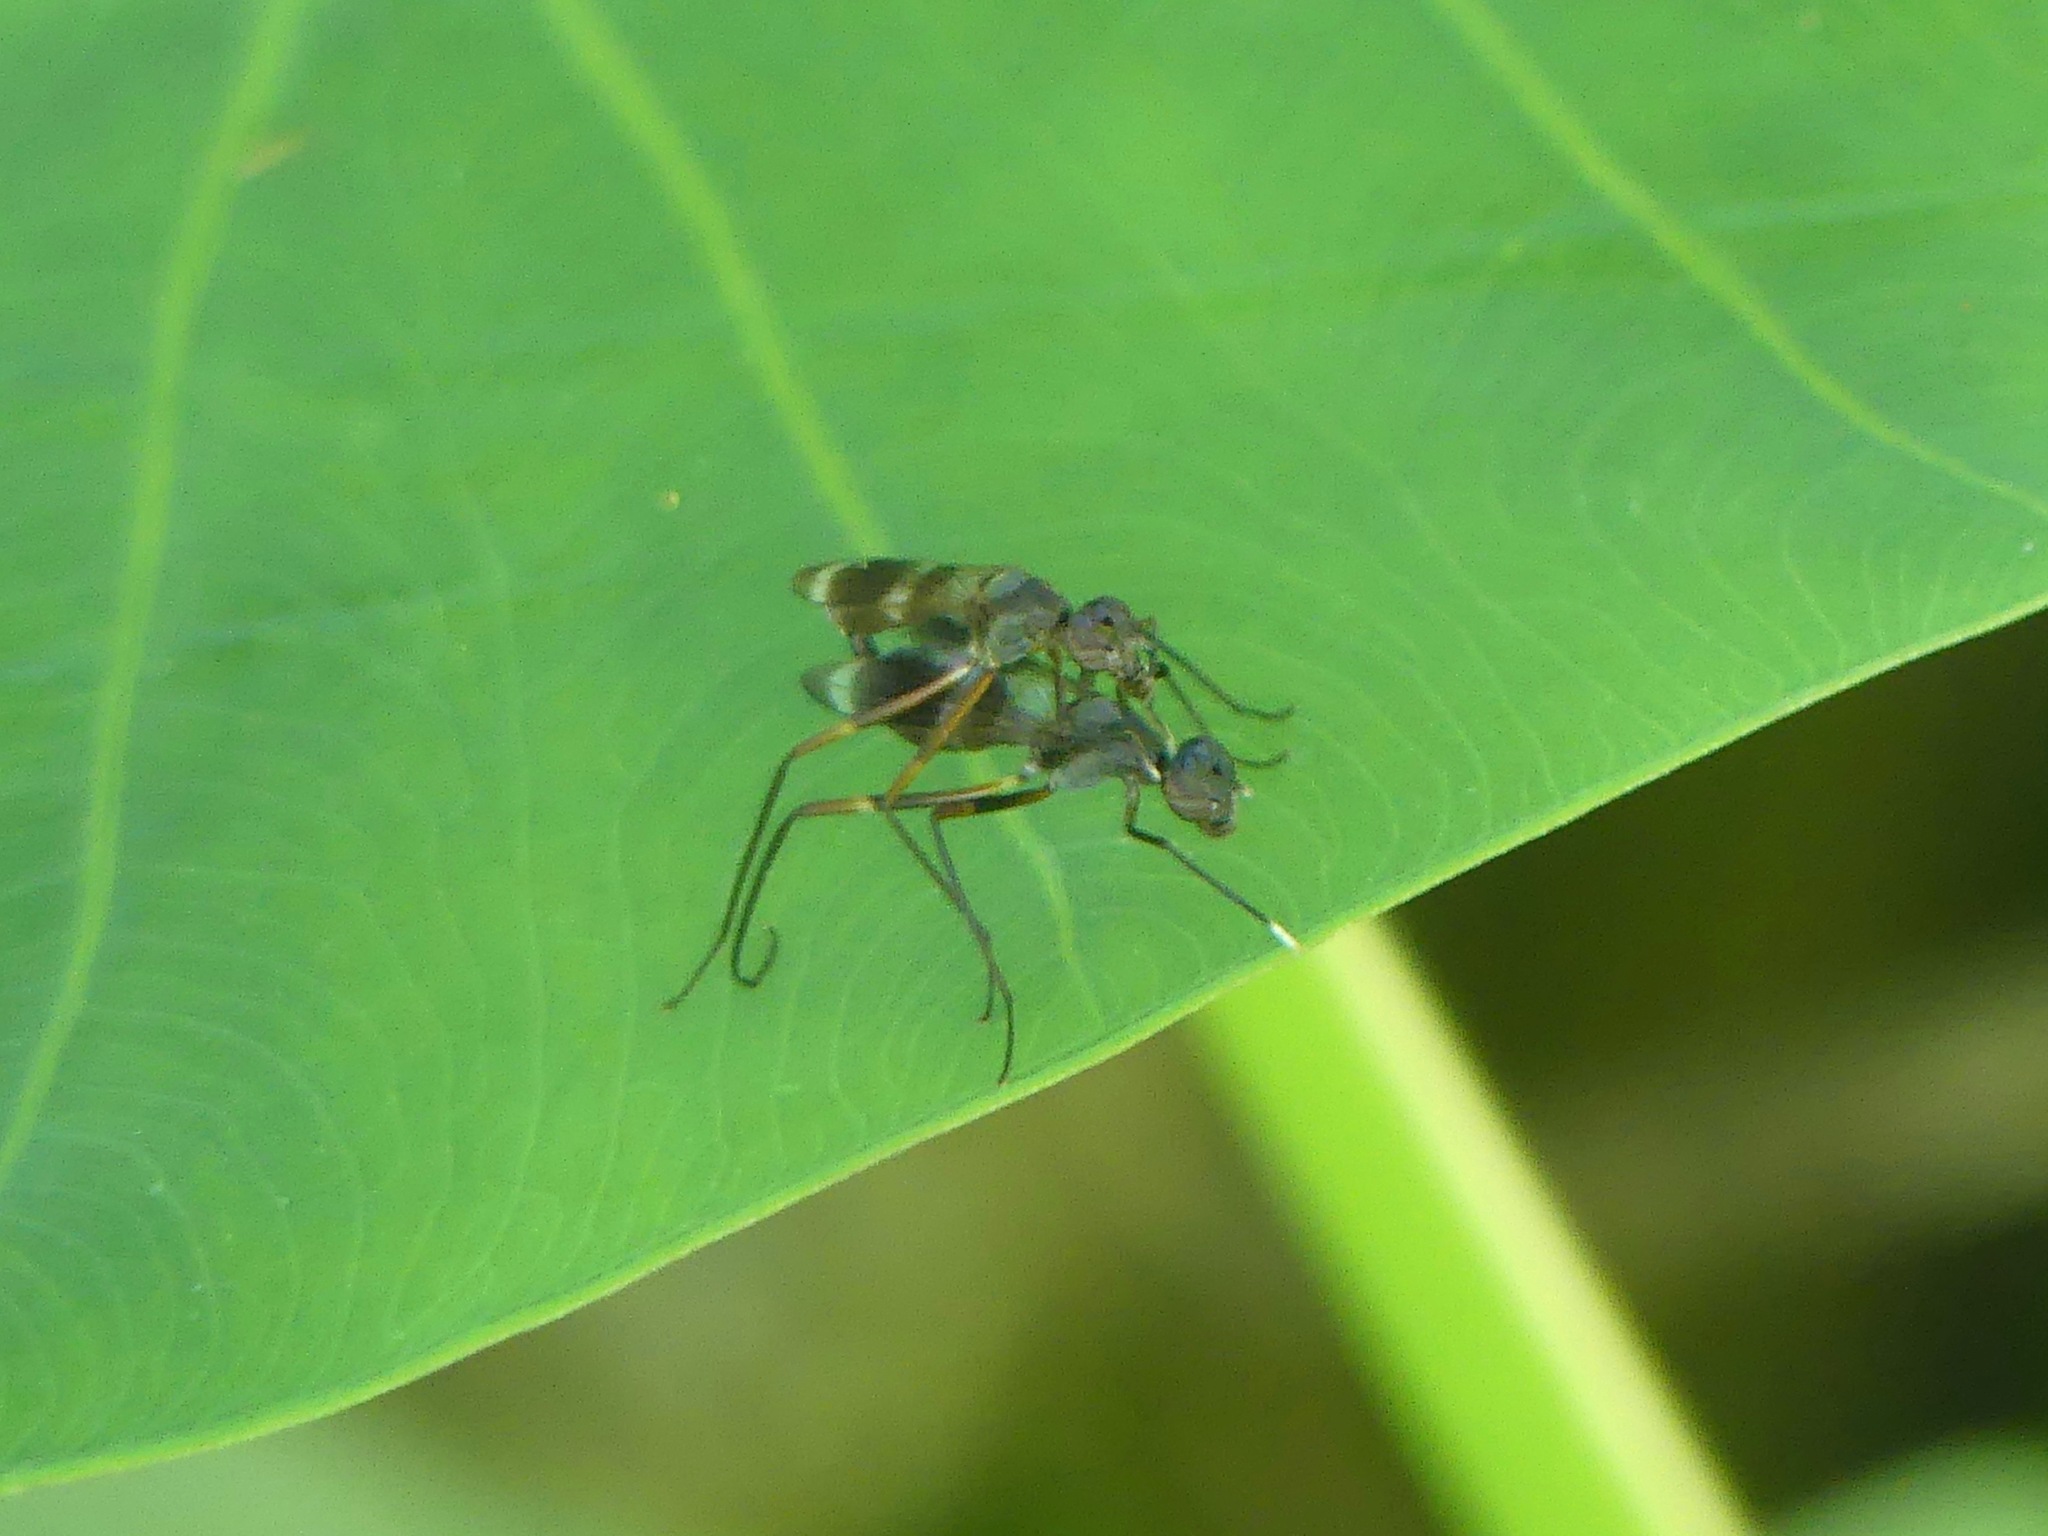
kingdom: Animalia
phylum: Arthropoda
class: Insecta
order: Diptera
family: Micropezidae
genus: Taeniaptera
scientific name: Taeniaptera trivittata
